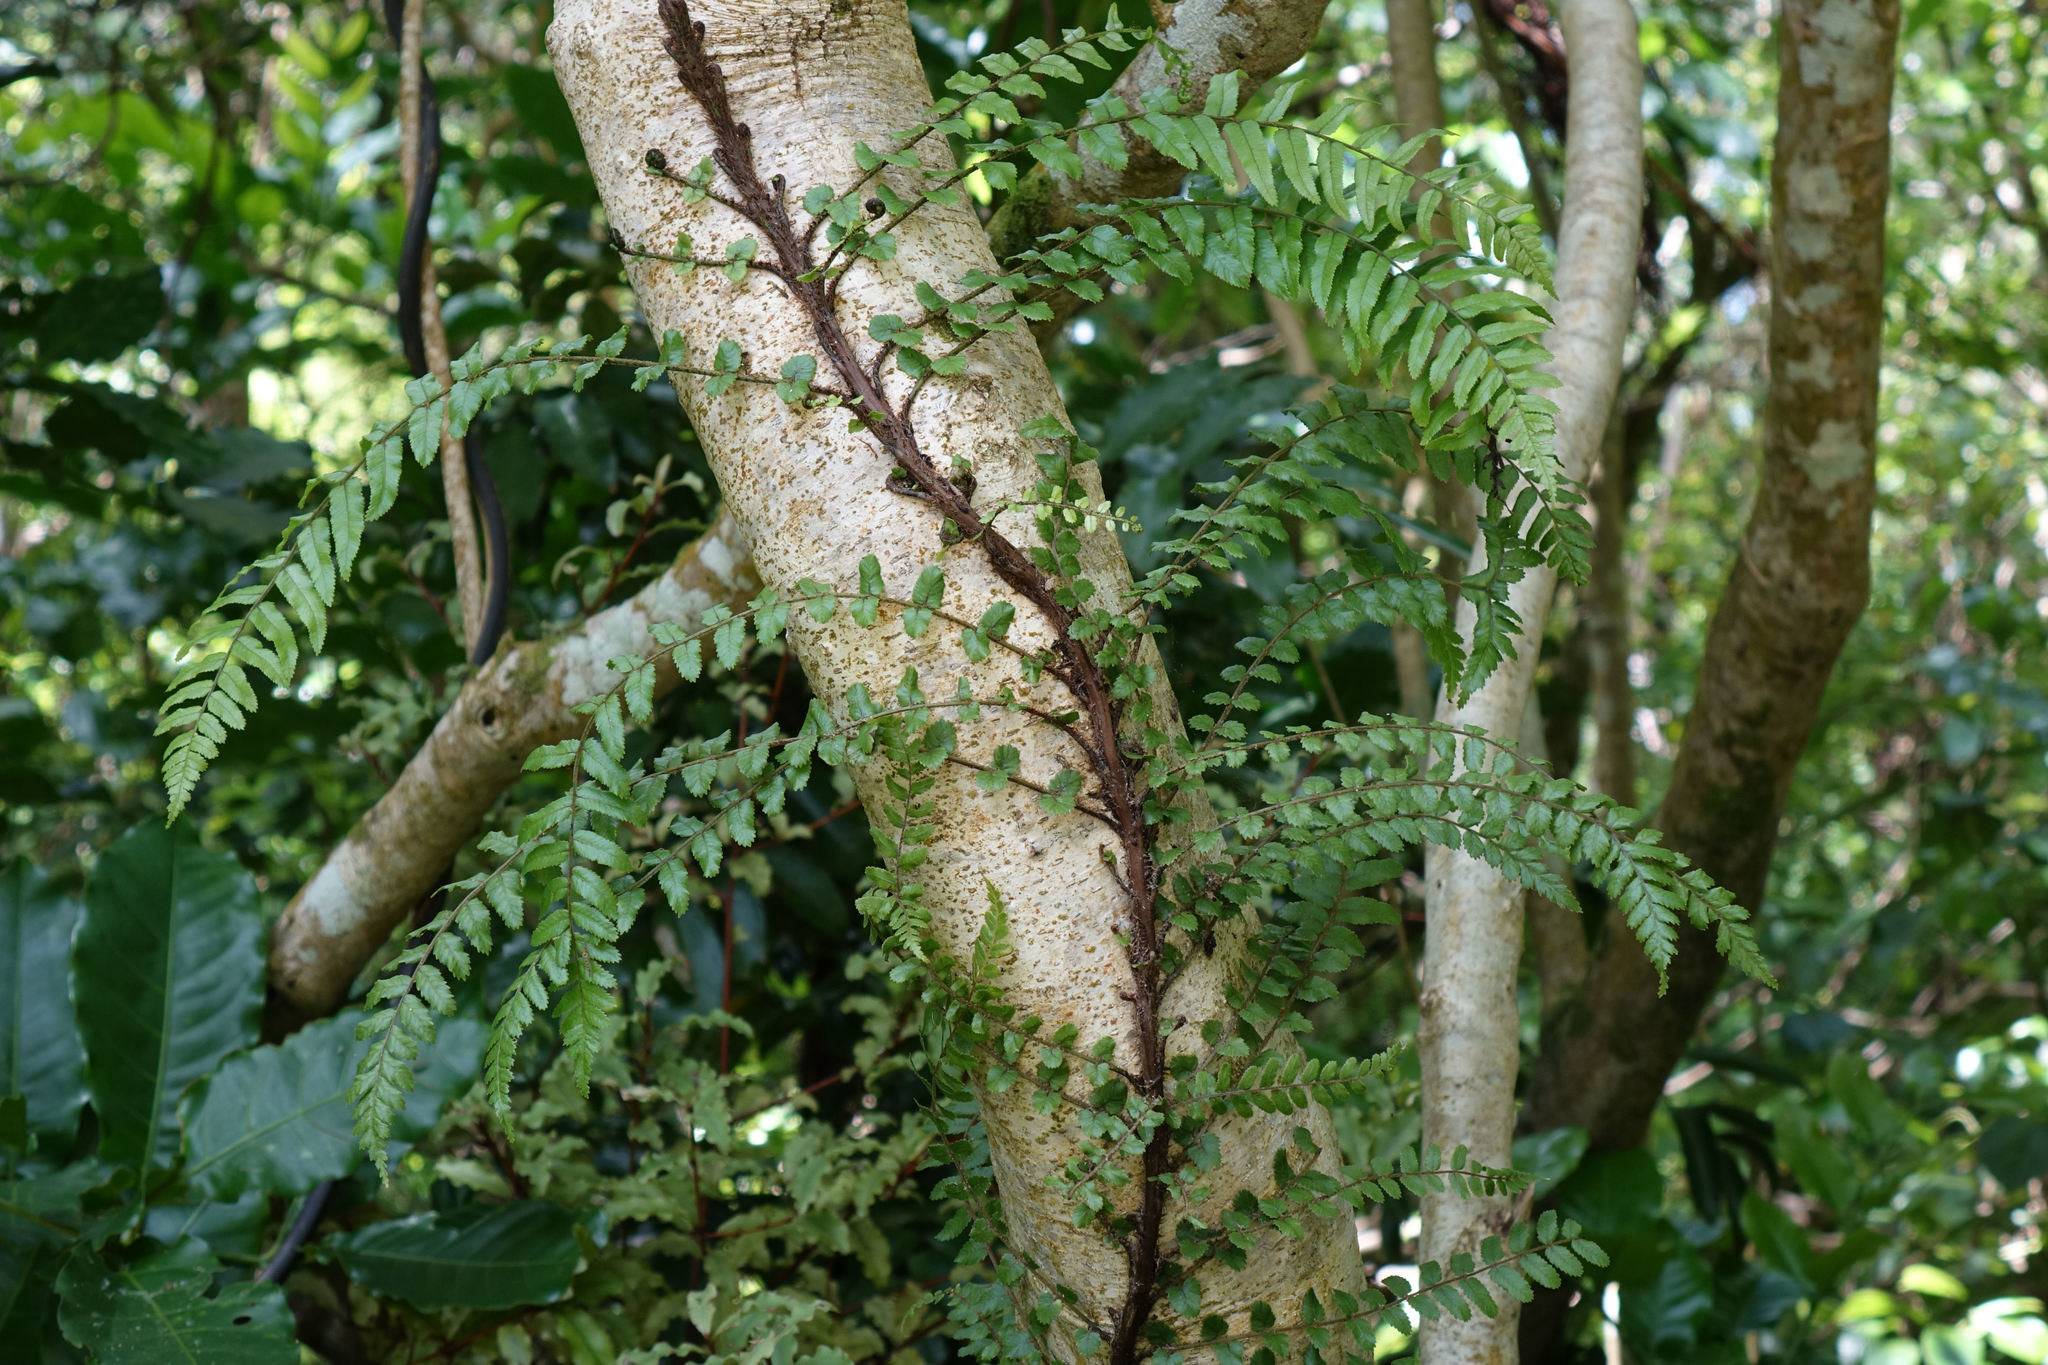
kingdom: Plantae
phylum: Tracheophyta
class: Polypodiopsida
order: Polypodiales
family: Blechnaceae
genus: Icarus
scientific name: Icarus filiformis
